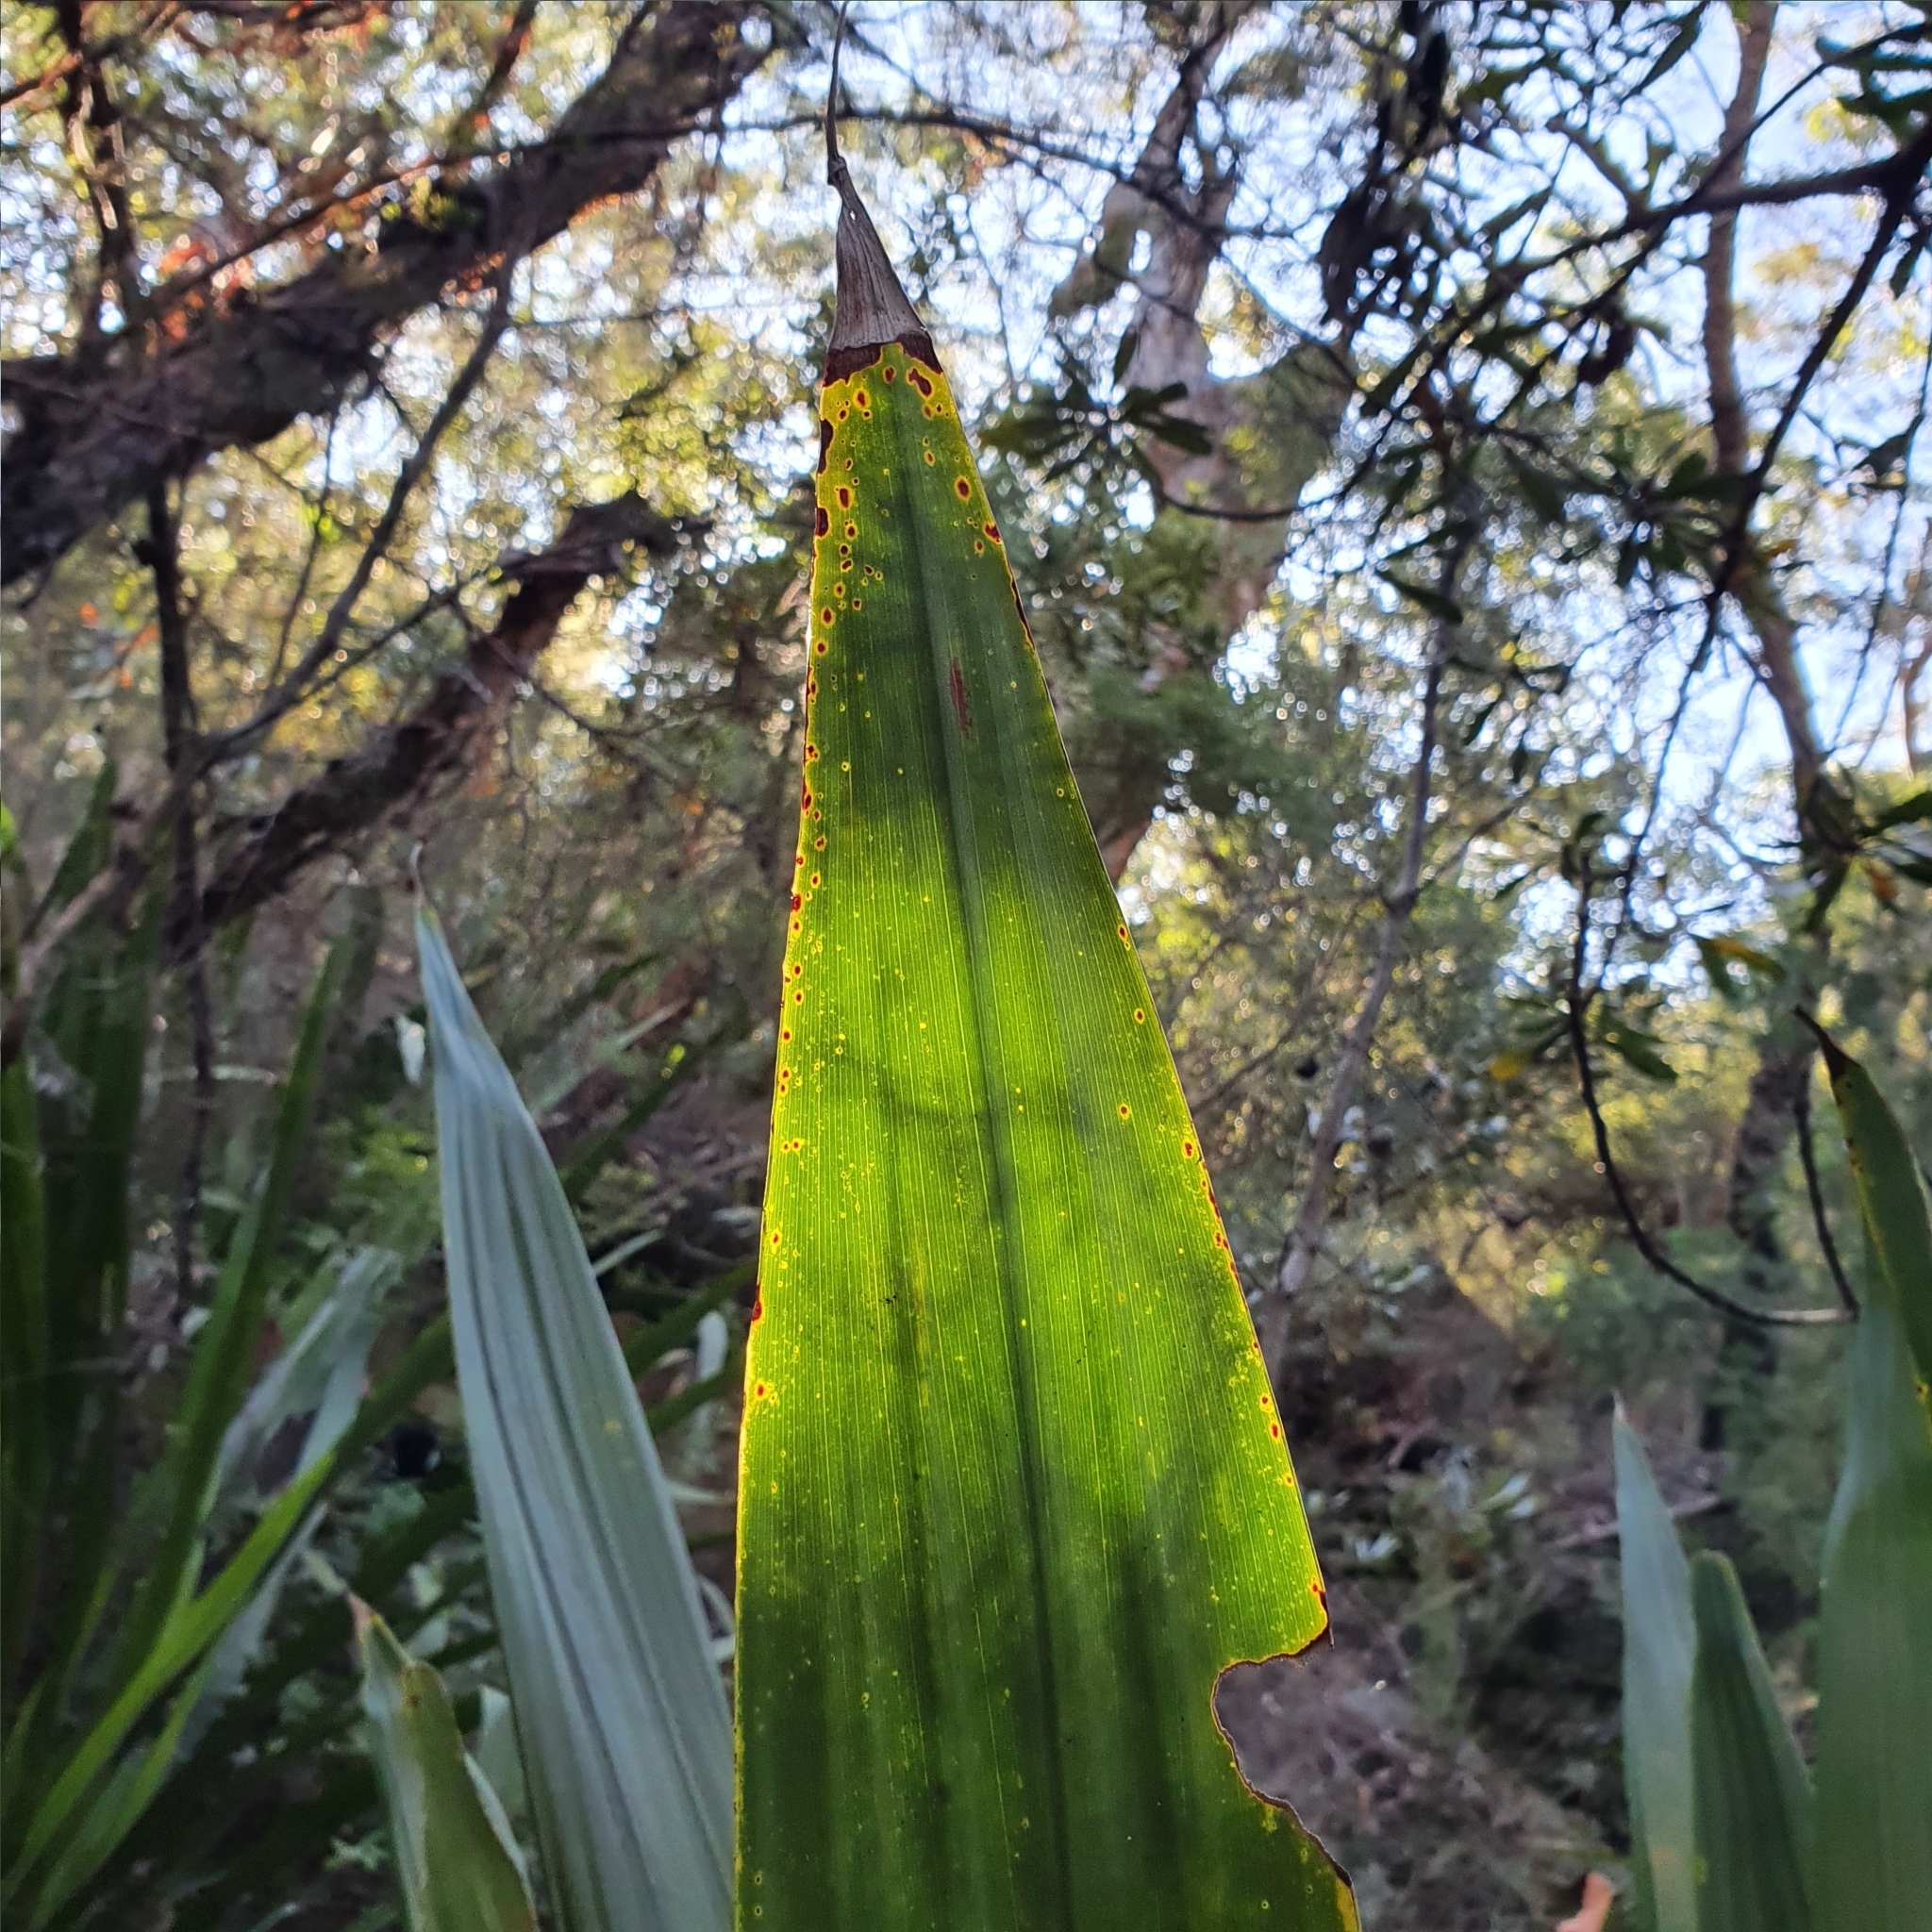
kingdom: Plantae
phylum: Tracheophyta
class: Liliopsida
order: Asparagales
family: Doryanthaceae
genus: Doryanthes
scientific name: Doryanthes excelsa
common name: Giant-lily
